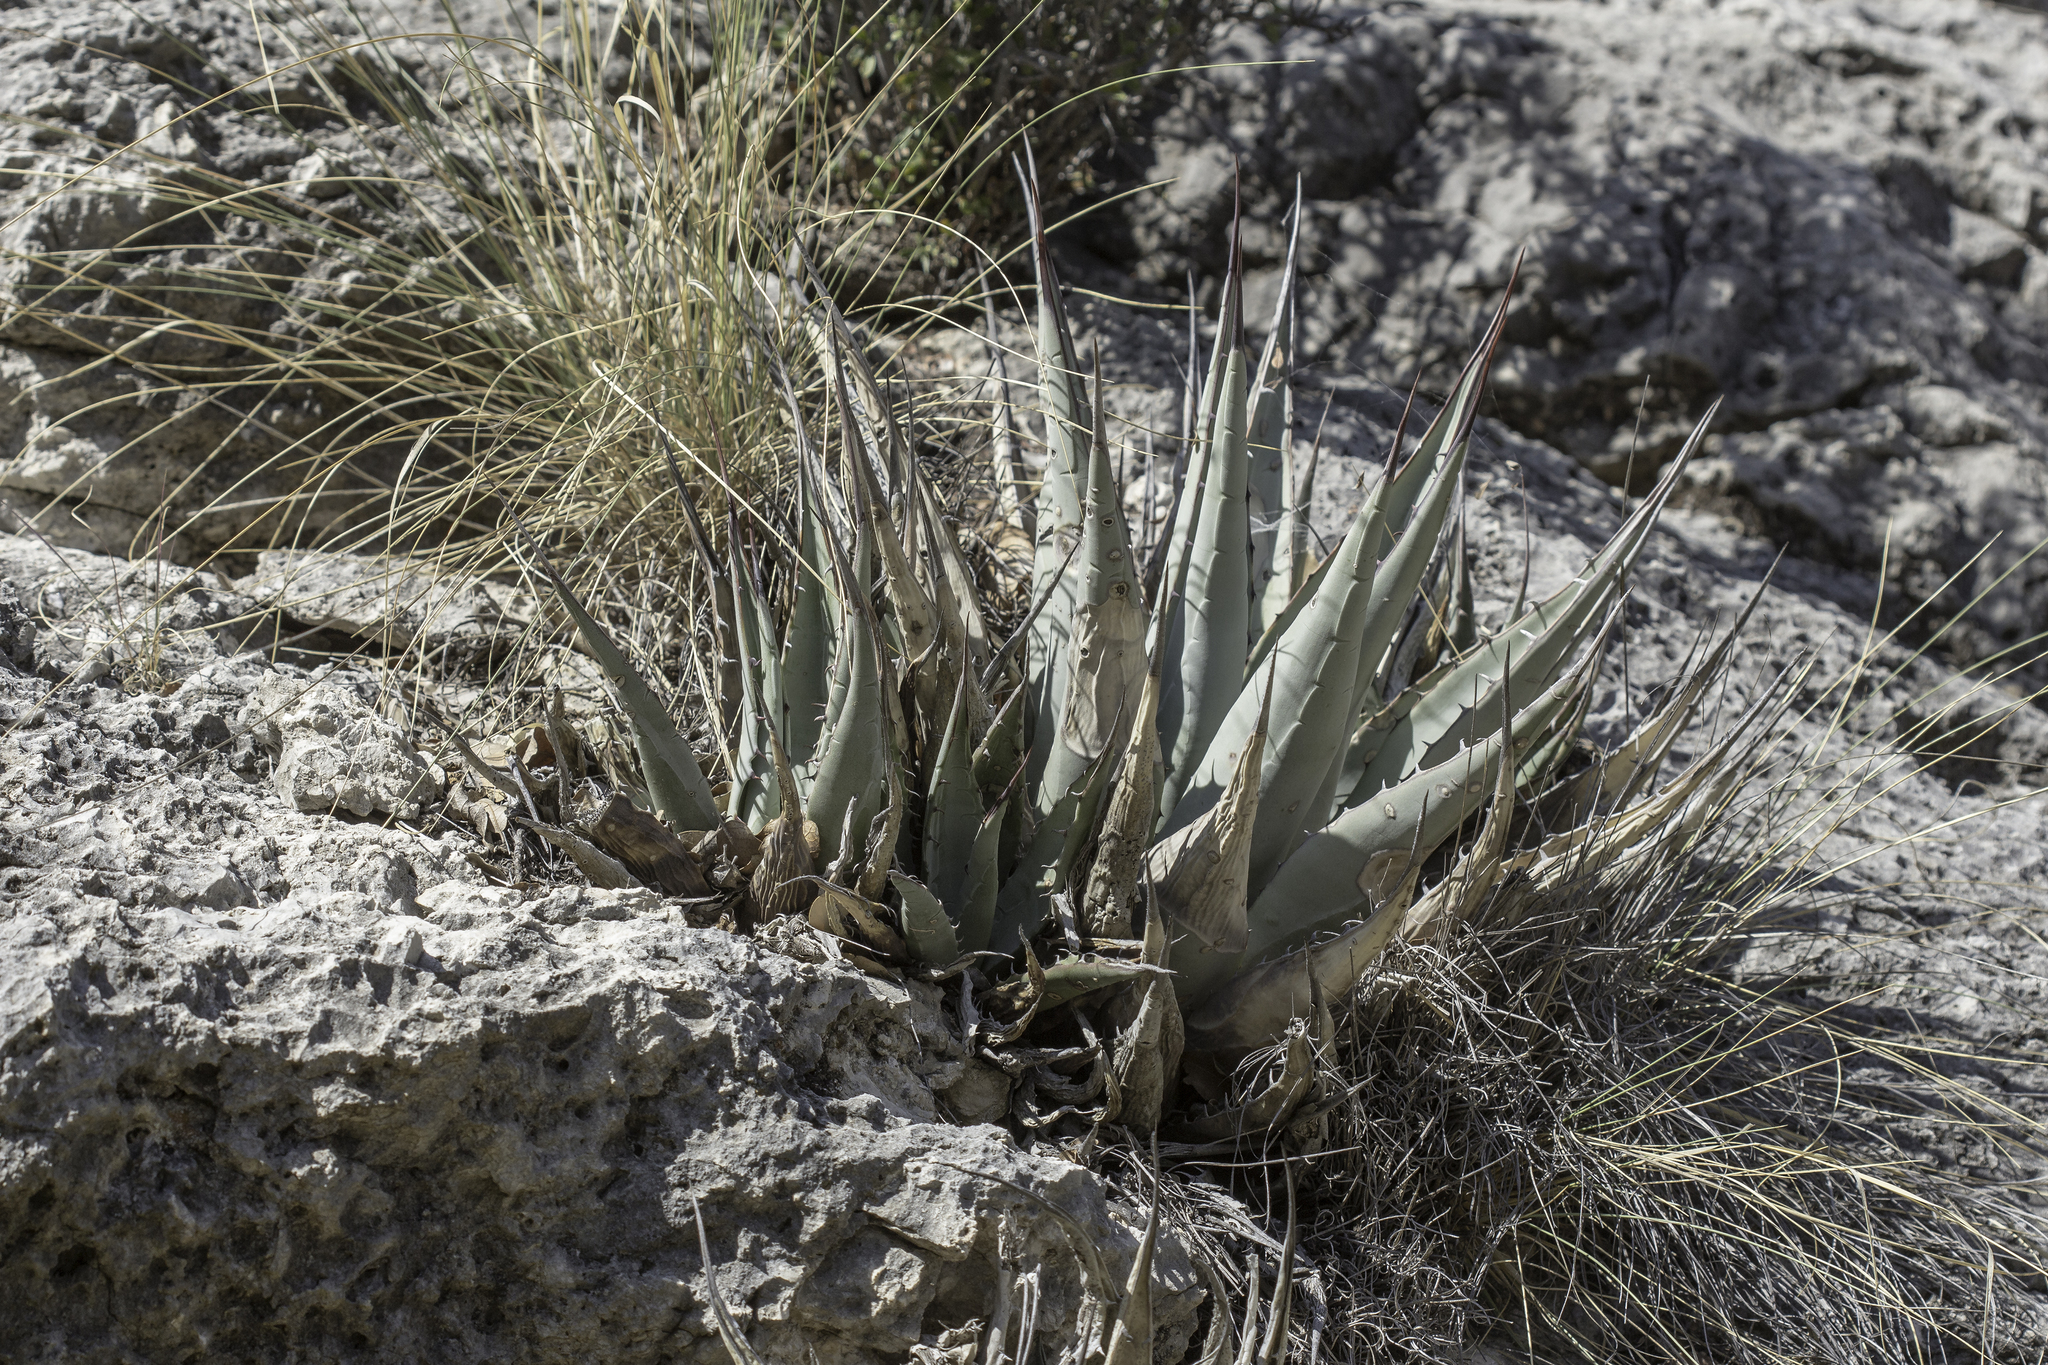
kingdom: Plantae
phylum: Tracheophyta
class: Liliopsida
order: Asparagales
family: Asparagaceae
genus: Agave
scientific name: Agave parryi
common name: Parry's agave
